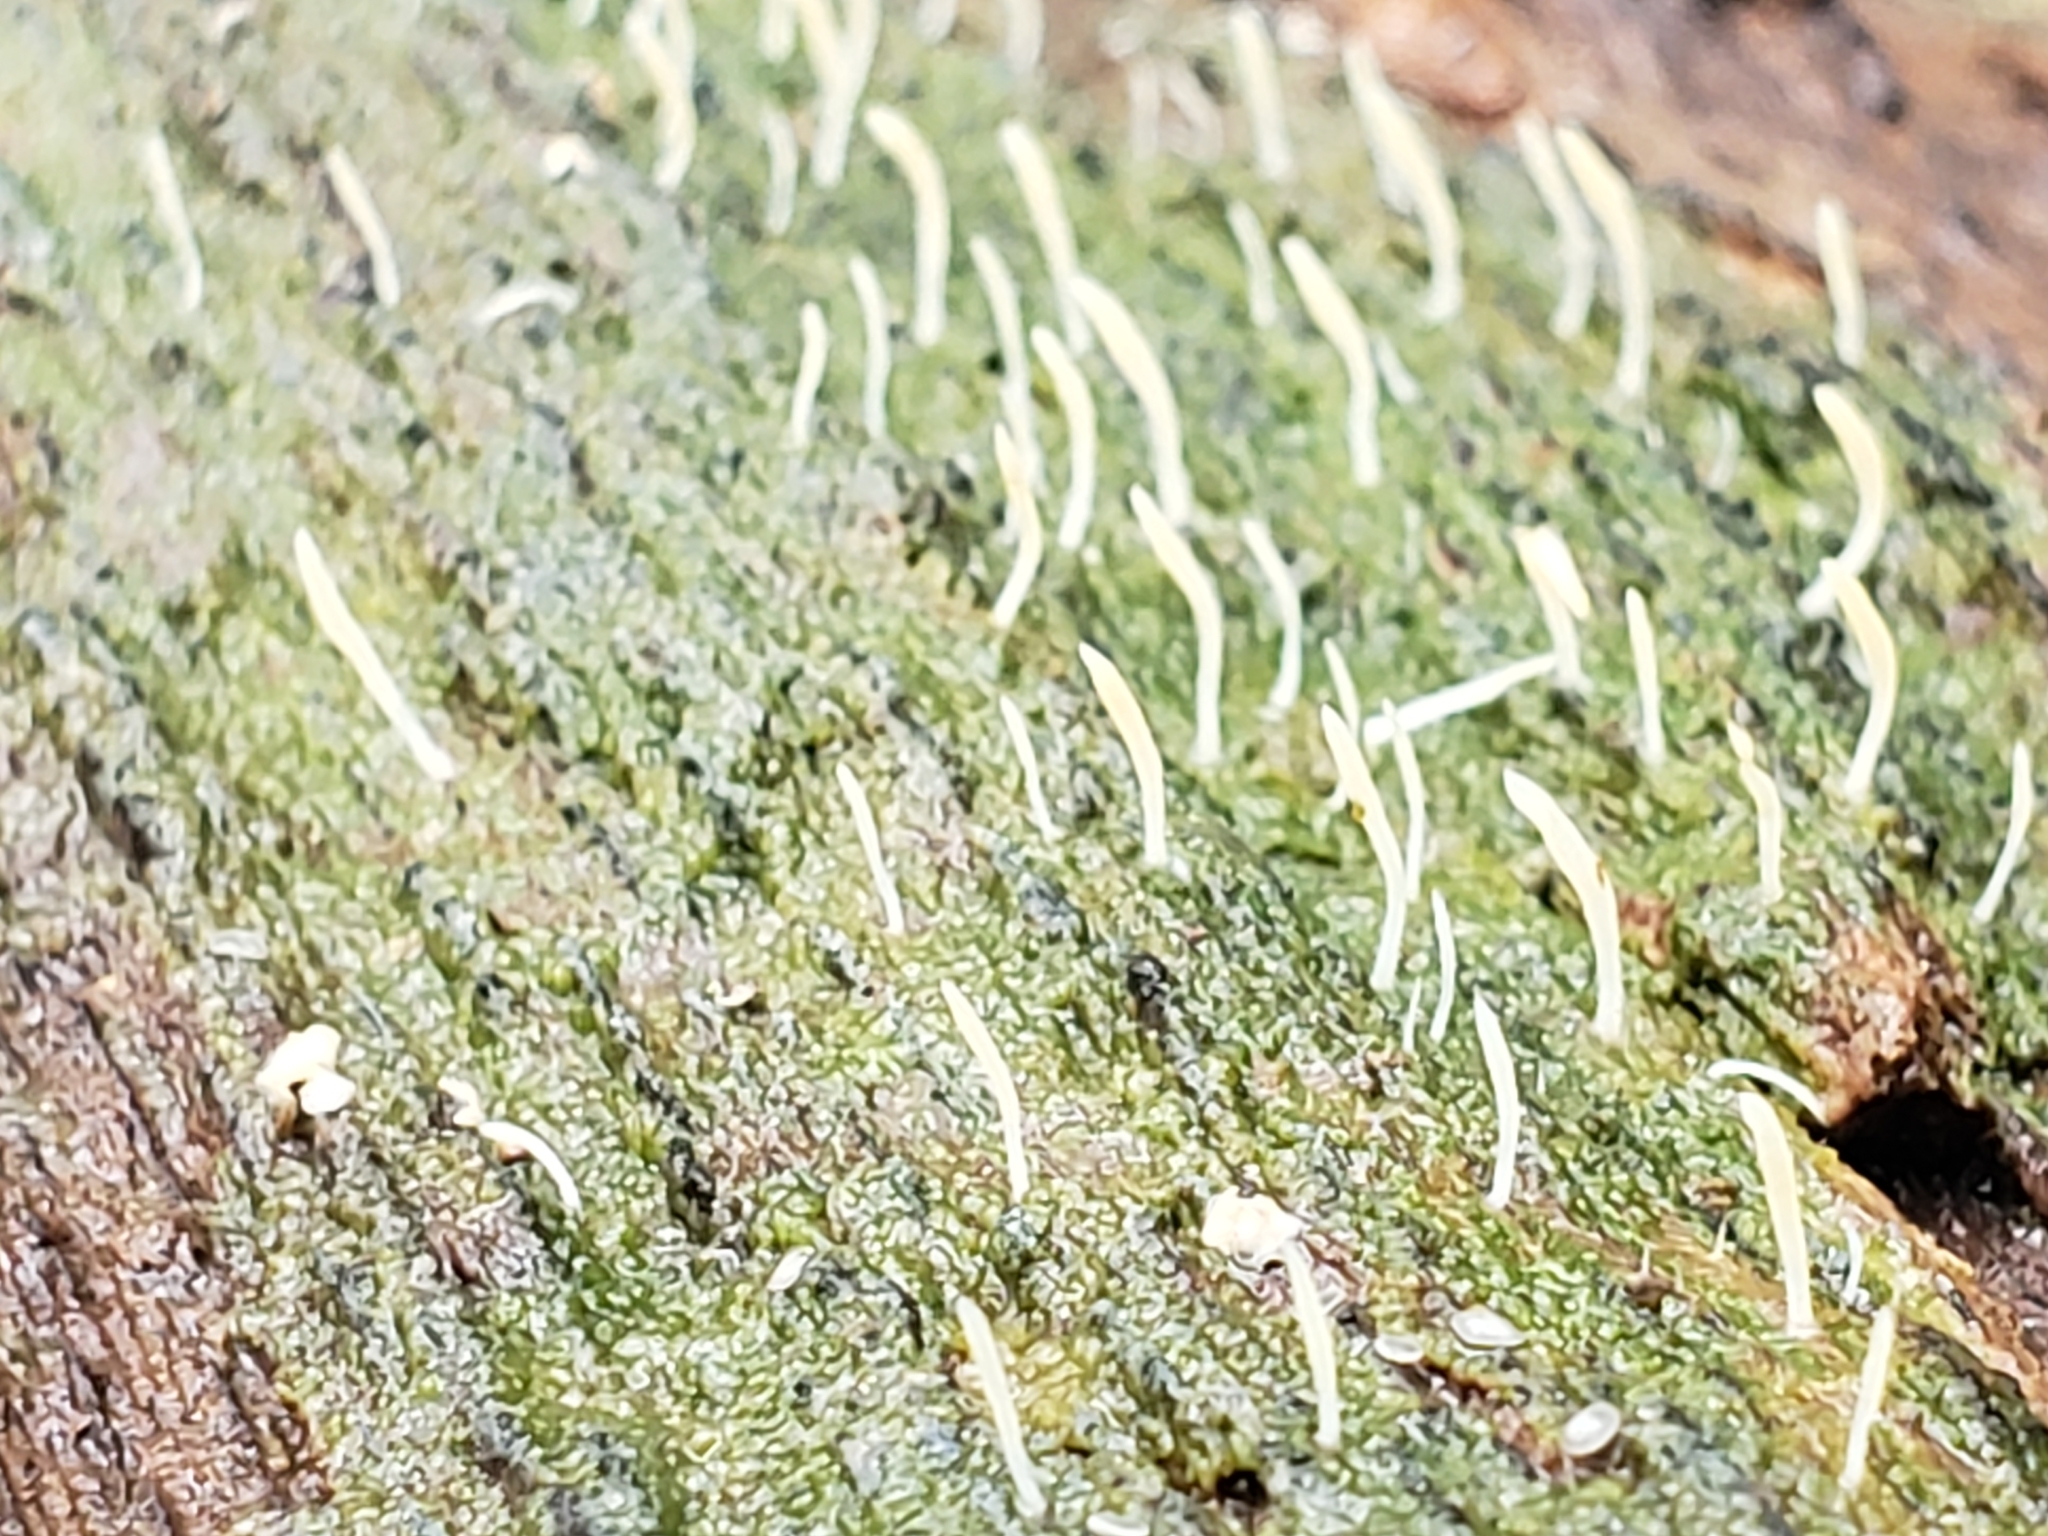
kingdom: Fungi
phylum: Basidiomycota
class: Agaricomycetes
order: Cantharellales
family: Hydnaceae
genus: Multiclavula
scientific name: Multiclavula mucida
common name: White green-algae coral
